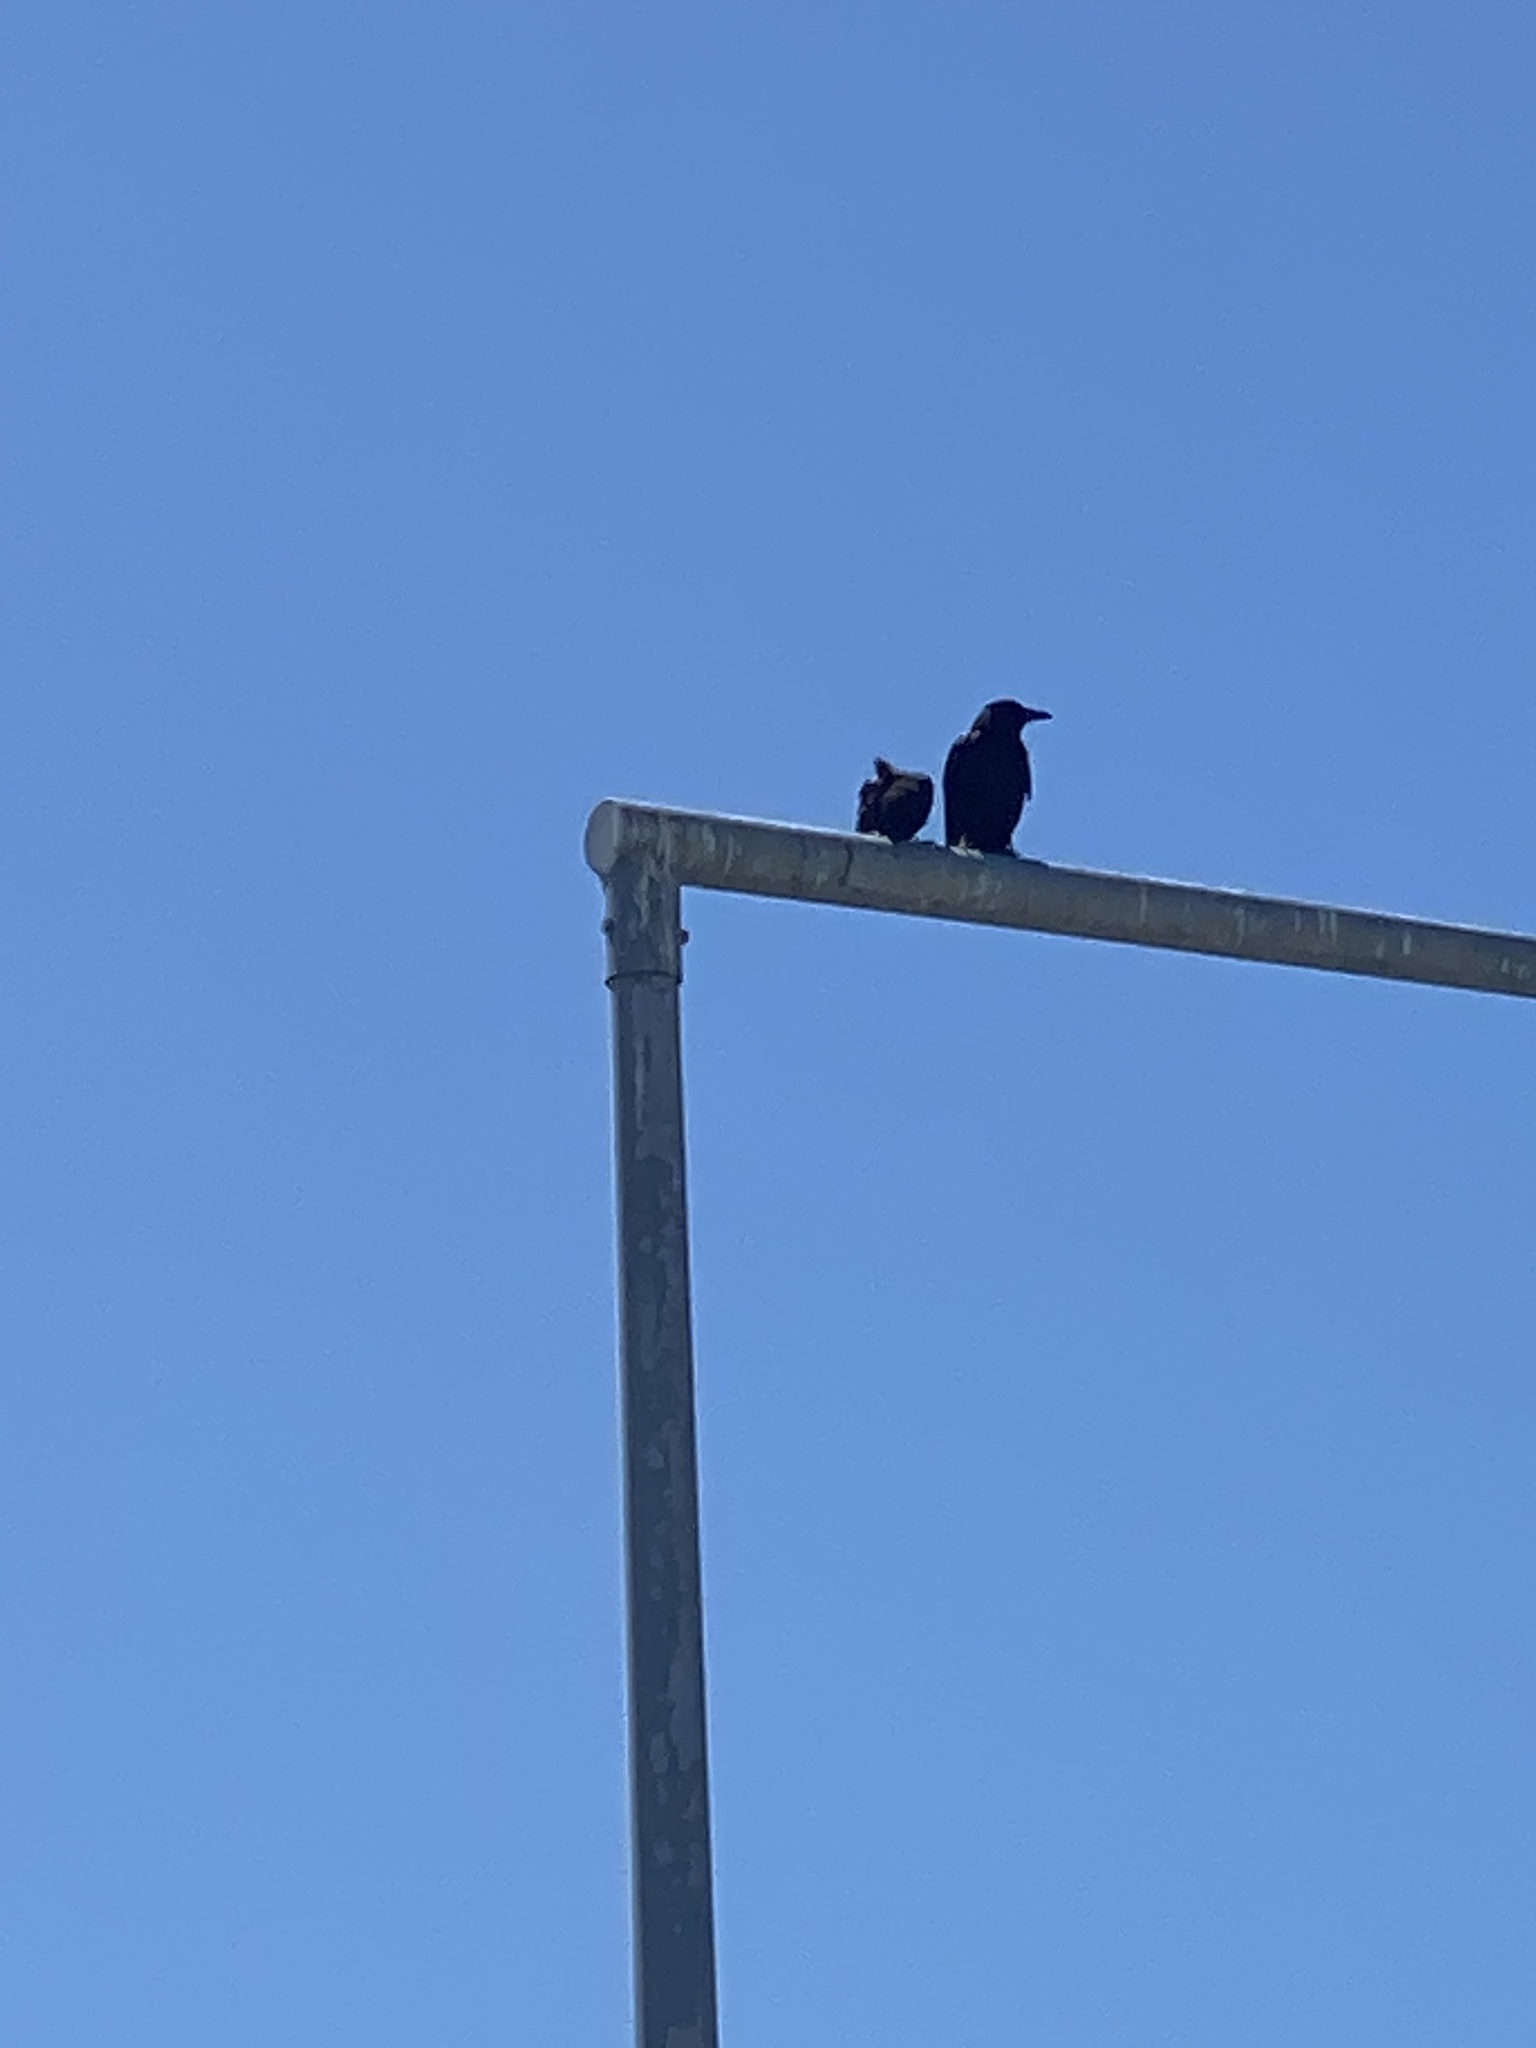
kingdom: Animalia
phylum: Chordata
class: Aves
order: Passeriformes
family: Corvidae
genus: Corvus
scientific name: Corvus brachyrhynchos
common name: American crow
